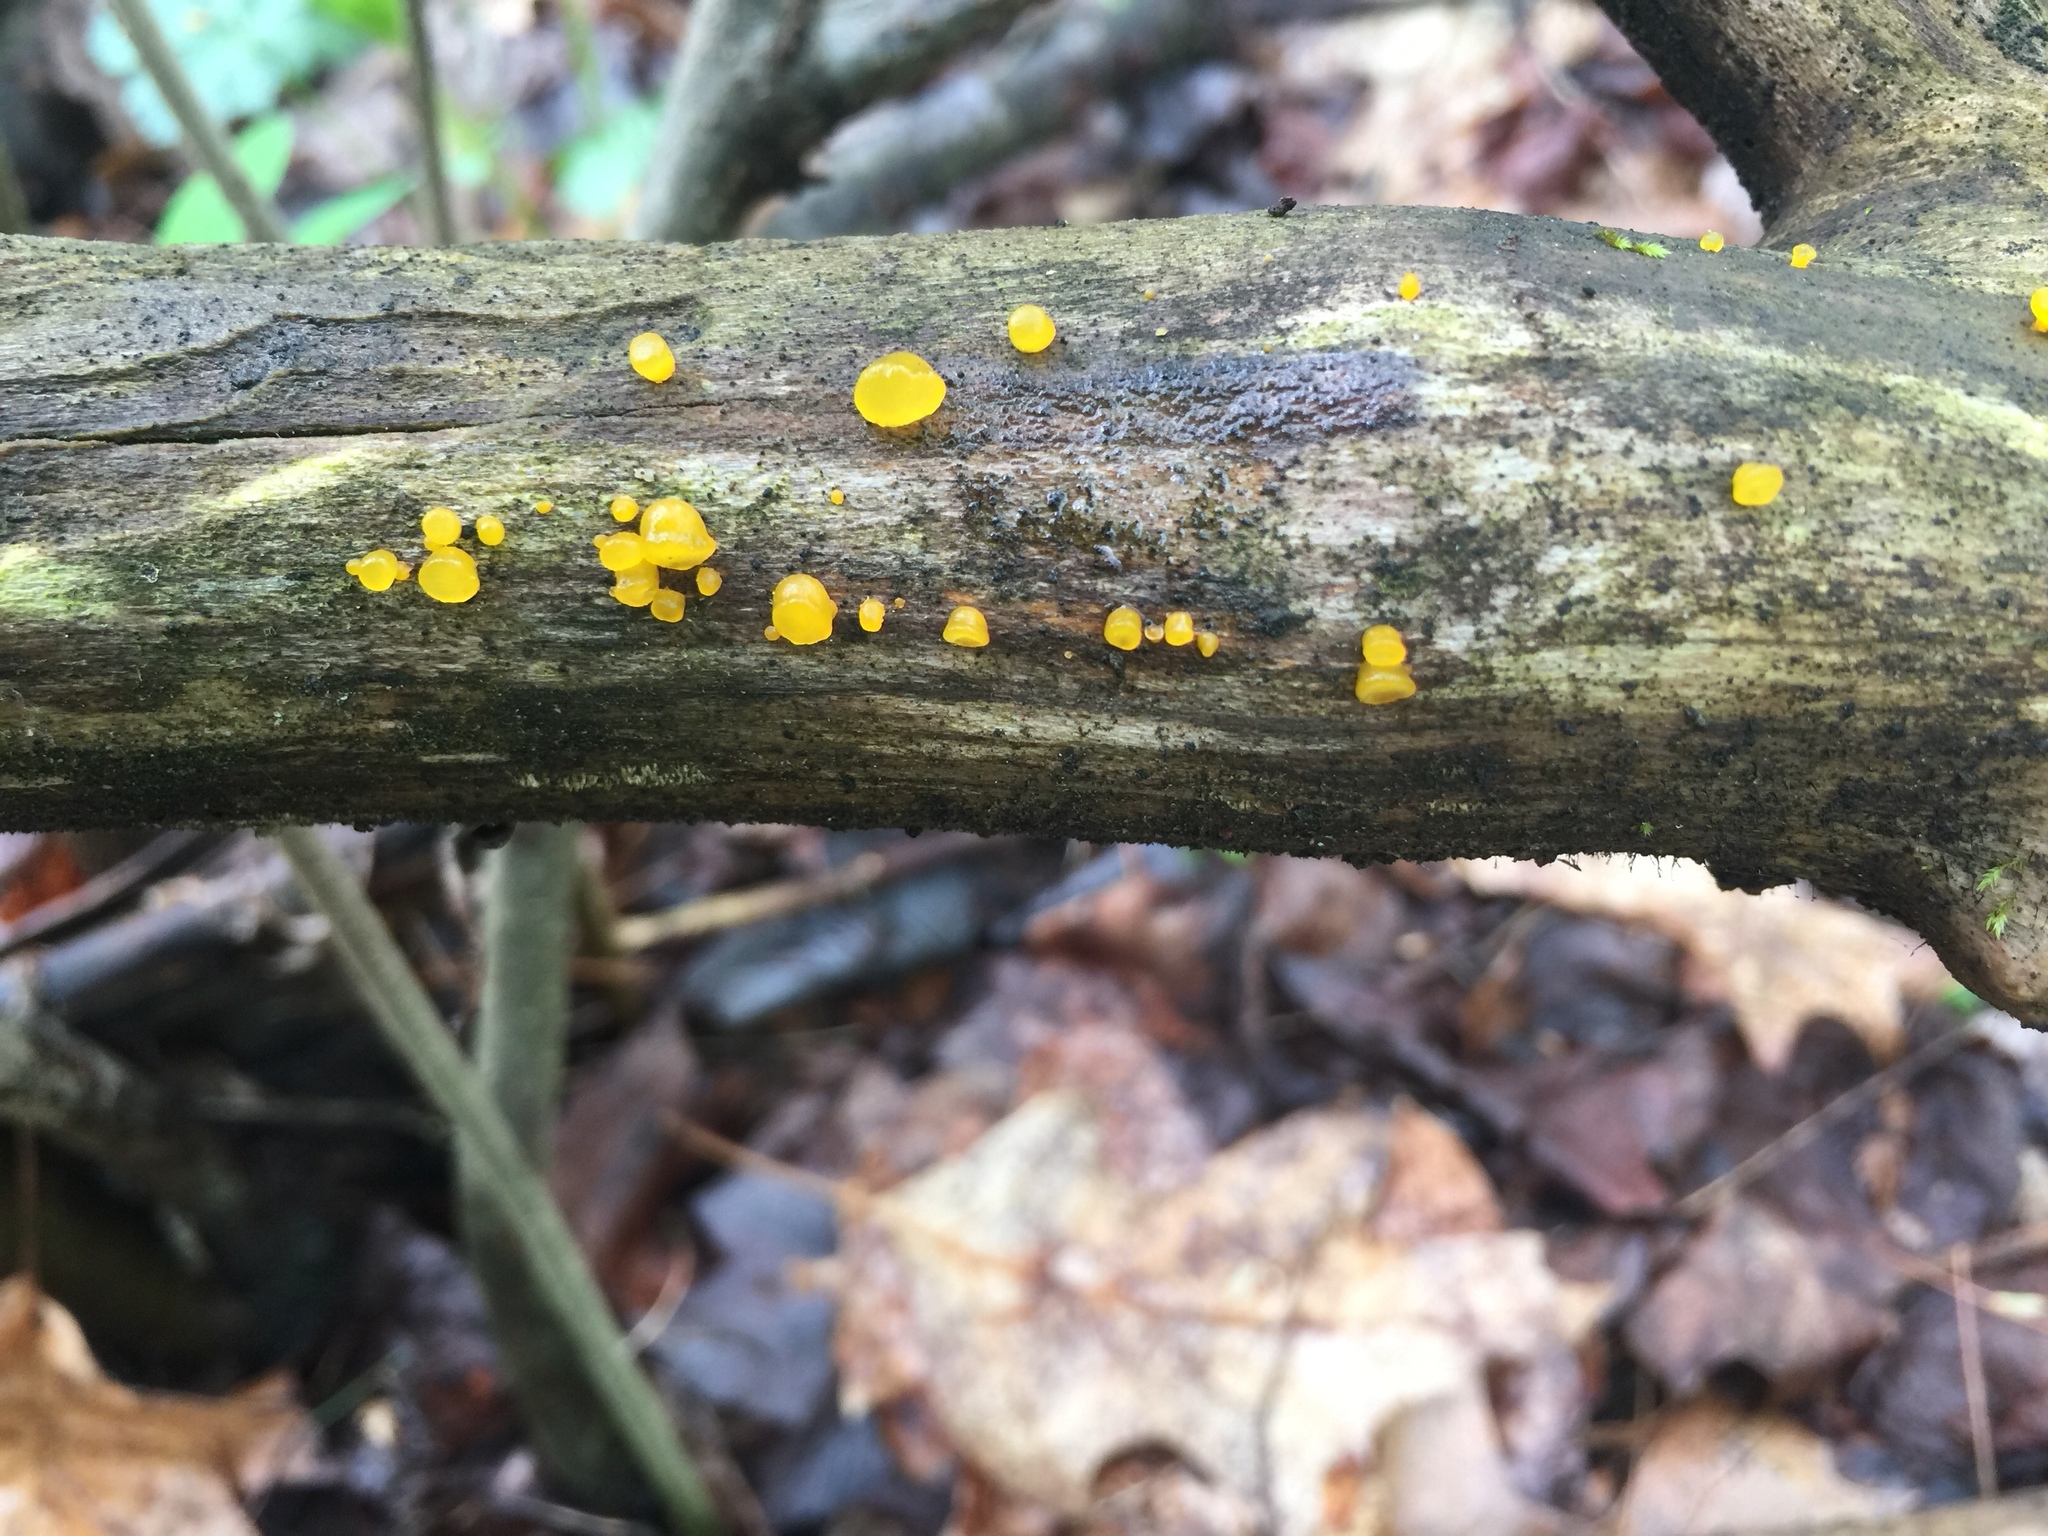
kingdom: Fungi
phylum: Basidiomycota
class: Dacrymycetes
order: Dacrymycetales
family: Dacrymycetaceae
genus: Dacrymyces
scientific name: Dacrymyces capitatus
